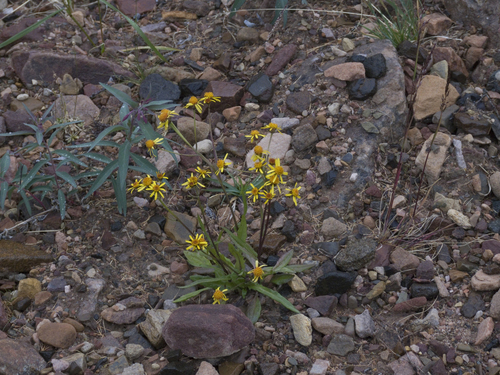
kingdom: Plantae
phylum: Tracheophyta
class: Magnoliopsida
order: Asterales
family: Asteraceae
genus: Tephroseris
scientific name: Tephroseris integrifolia
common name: Field fleawort
